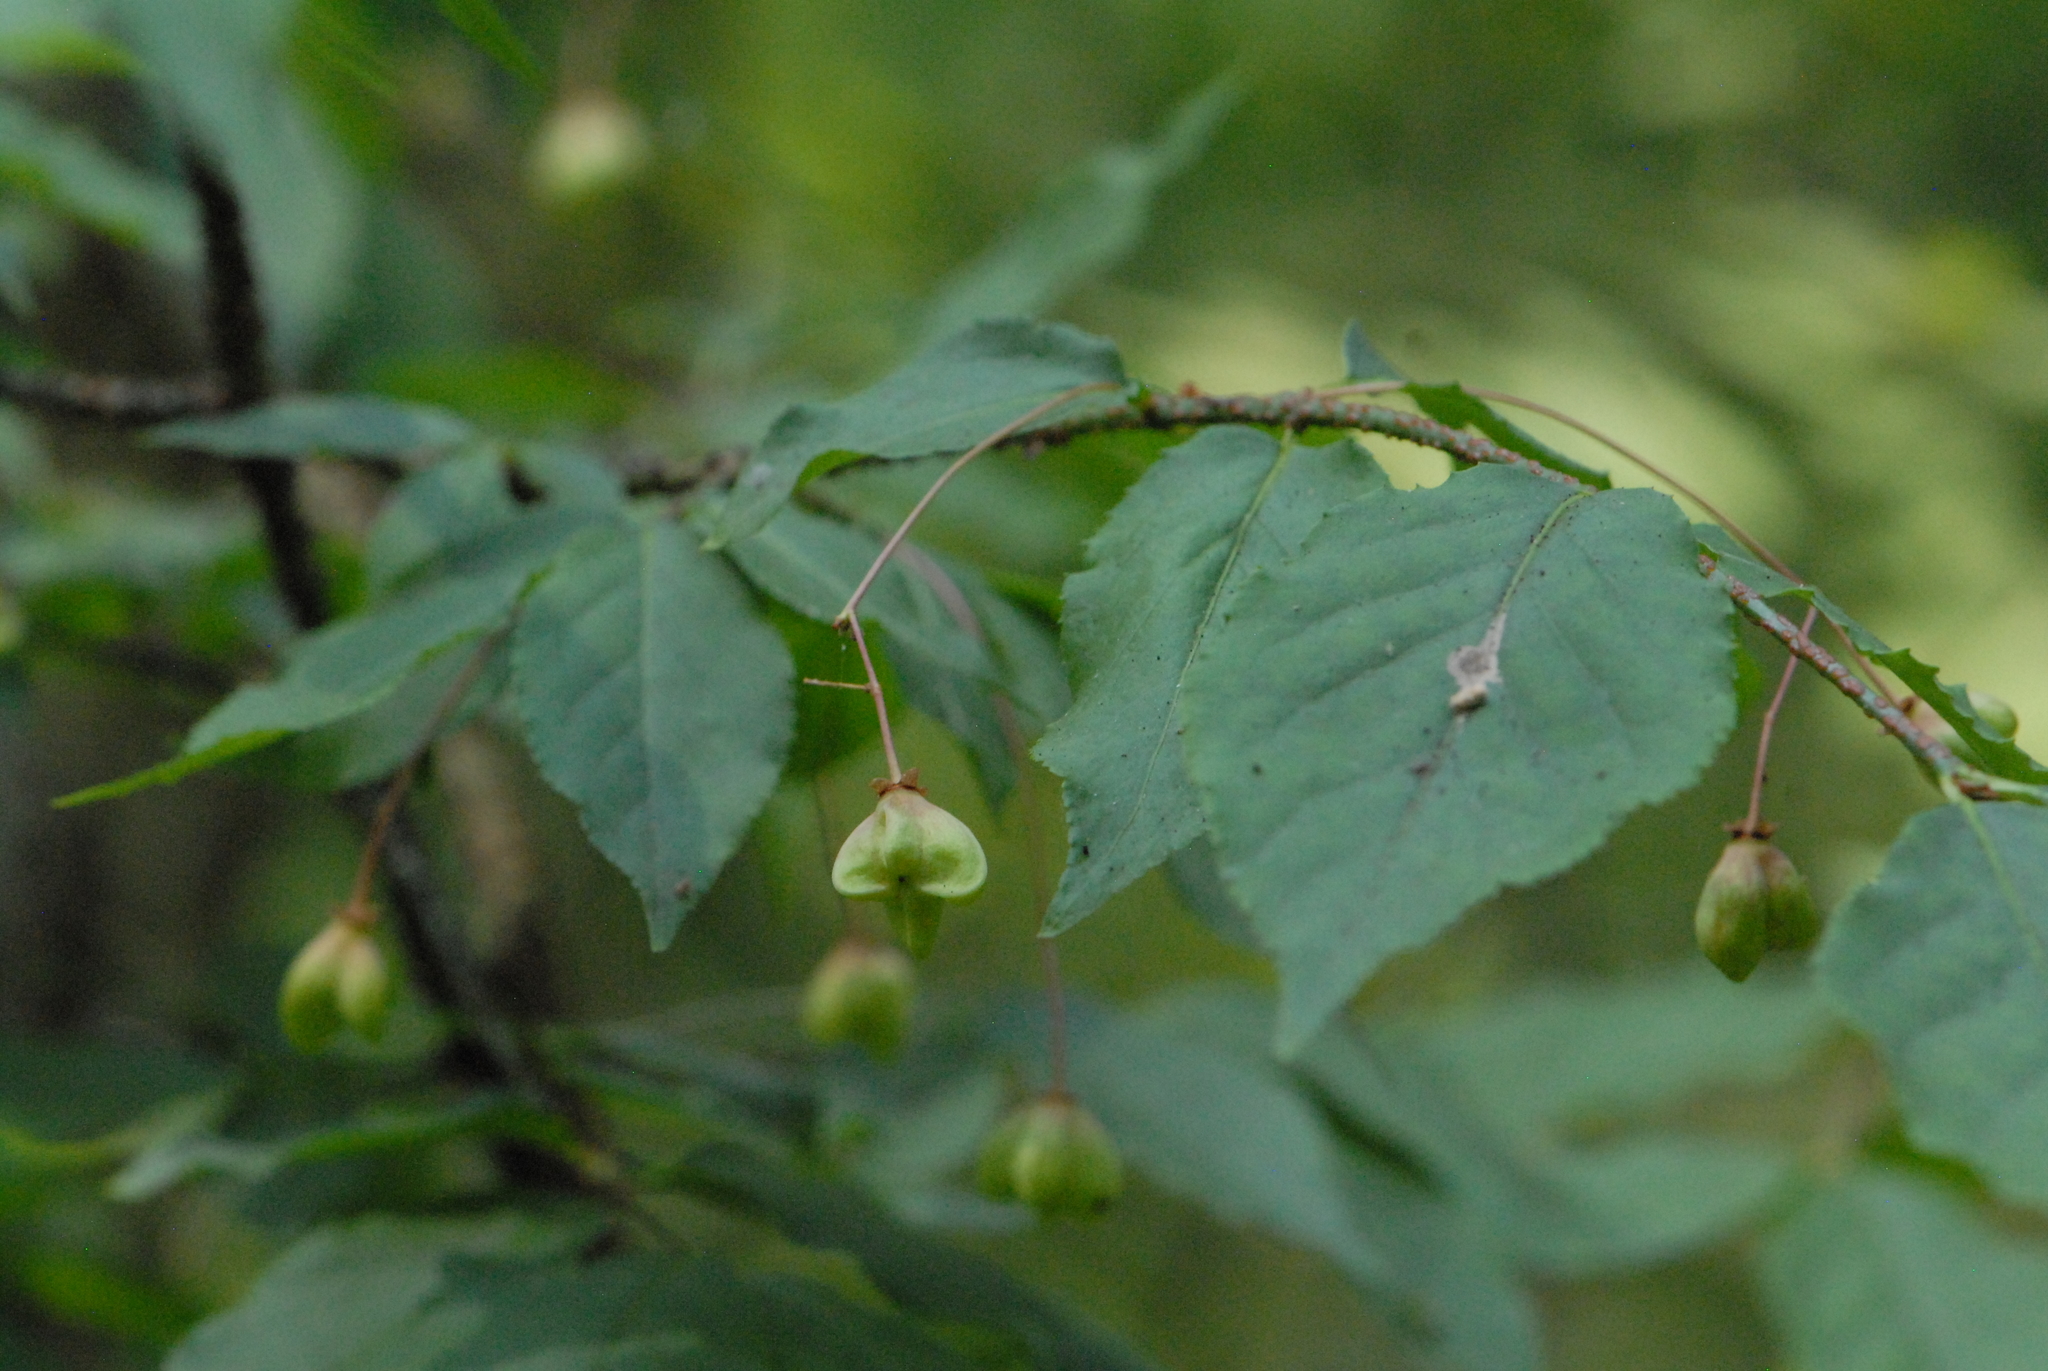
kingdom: Plantae
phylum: Tracheophyta
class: Magnoliopsida
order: Celastrales
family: Celastraceae
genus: Euonymus
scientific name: Euonymus verrucosus
